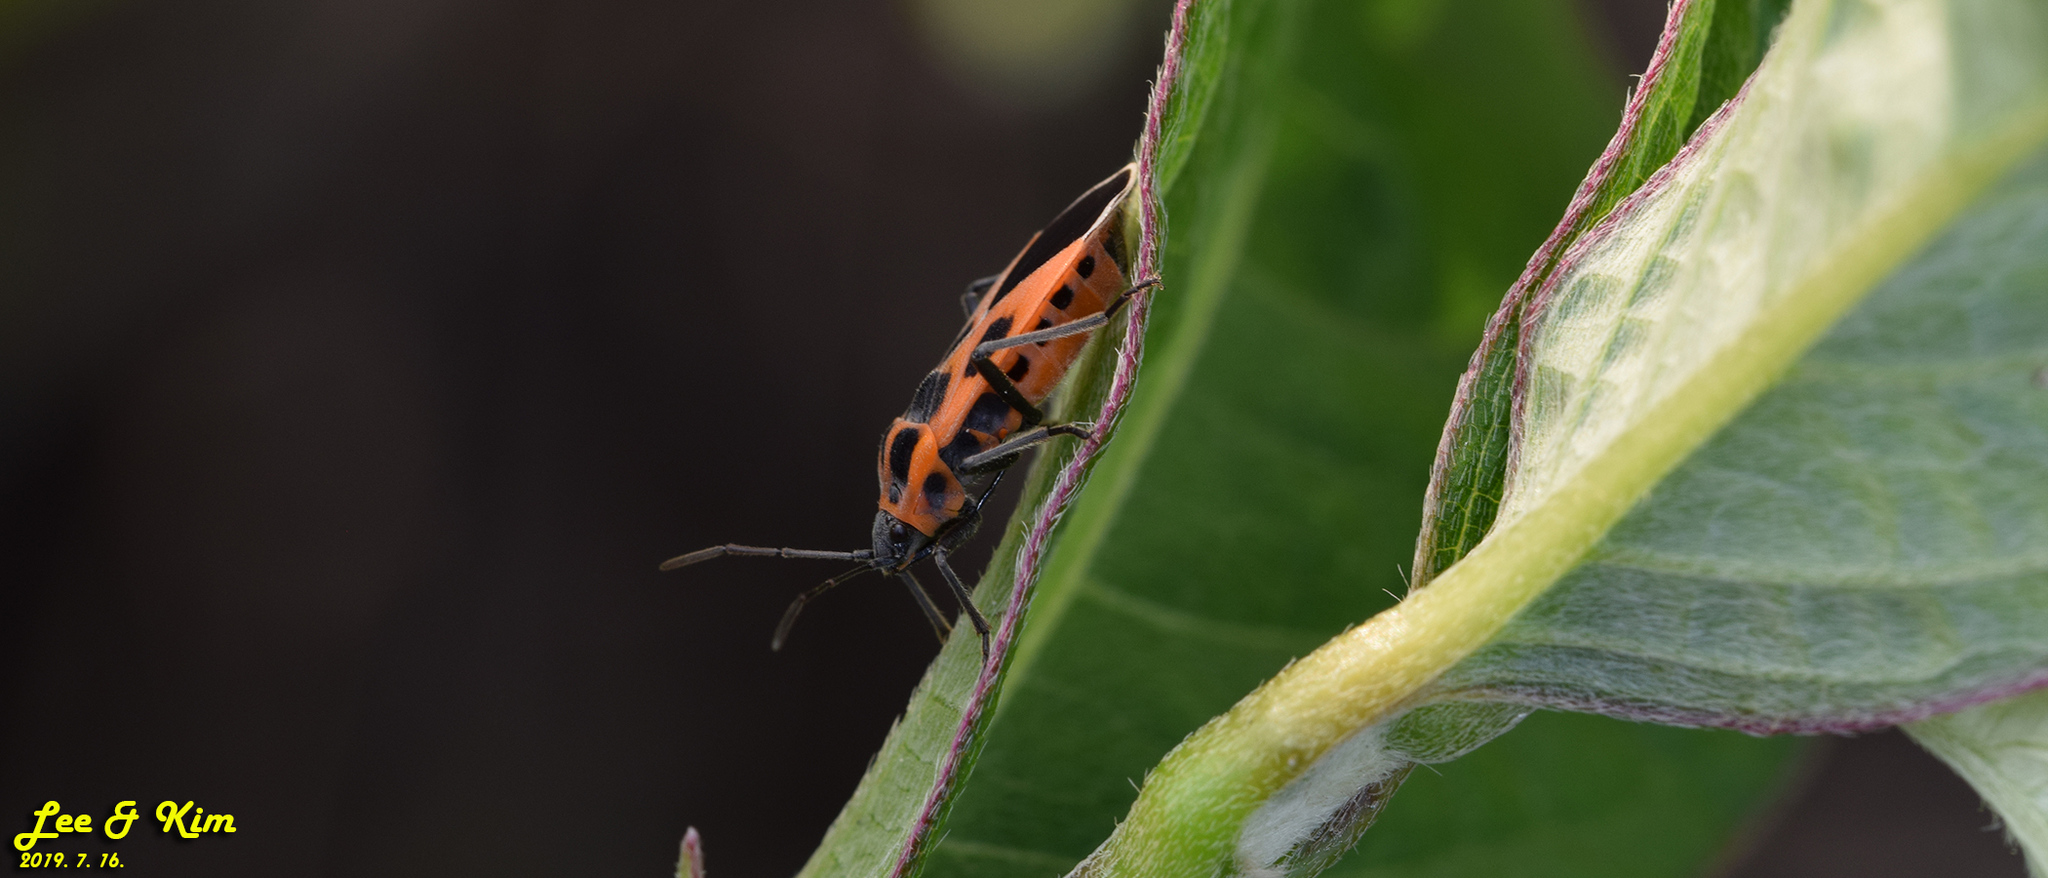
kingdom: Animalia
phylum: Arthropoda
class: Insecta
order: Hemiptera
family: Lygaeidae
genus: Tropidothorax
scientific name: Tropidothorax cruciger
